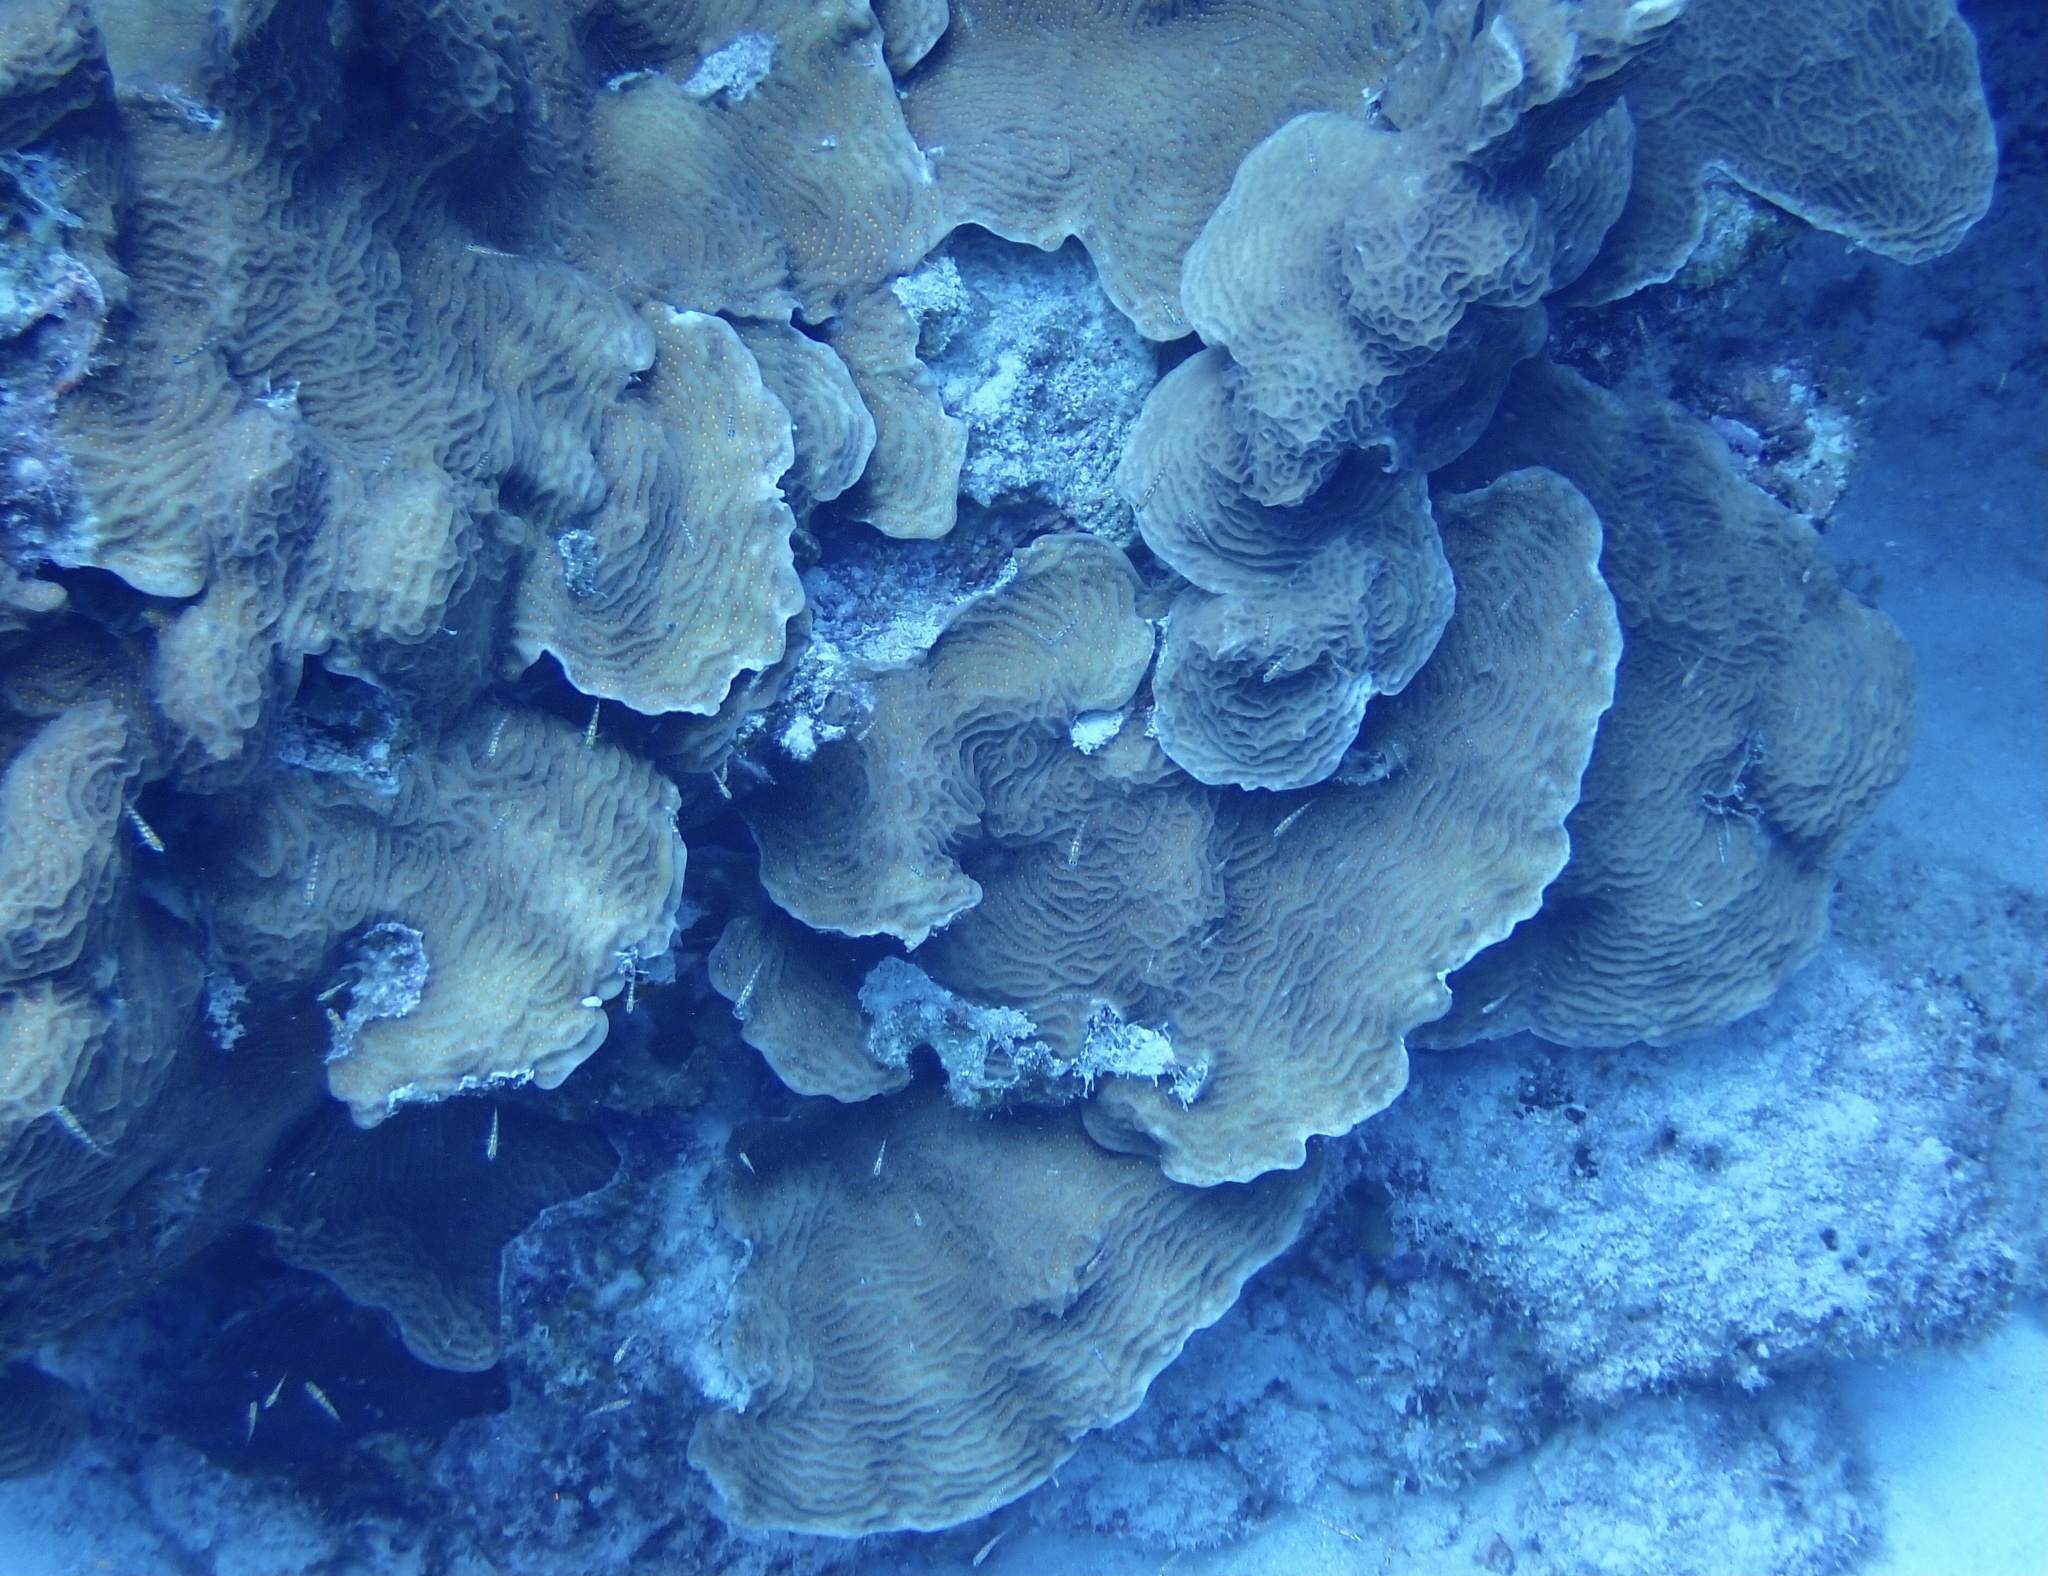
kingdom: Animalia
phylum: Cnidaria
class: Anthozoa
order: Scleractinia
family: Agariciidae
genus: Agaricia
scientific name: Agaricia agaricites
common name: Lettuce coral
